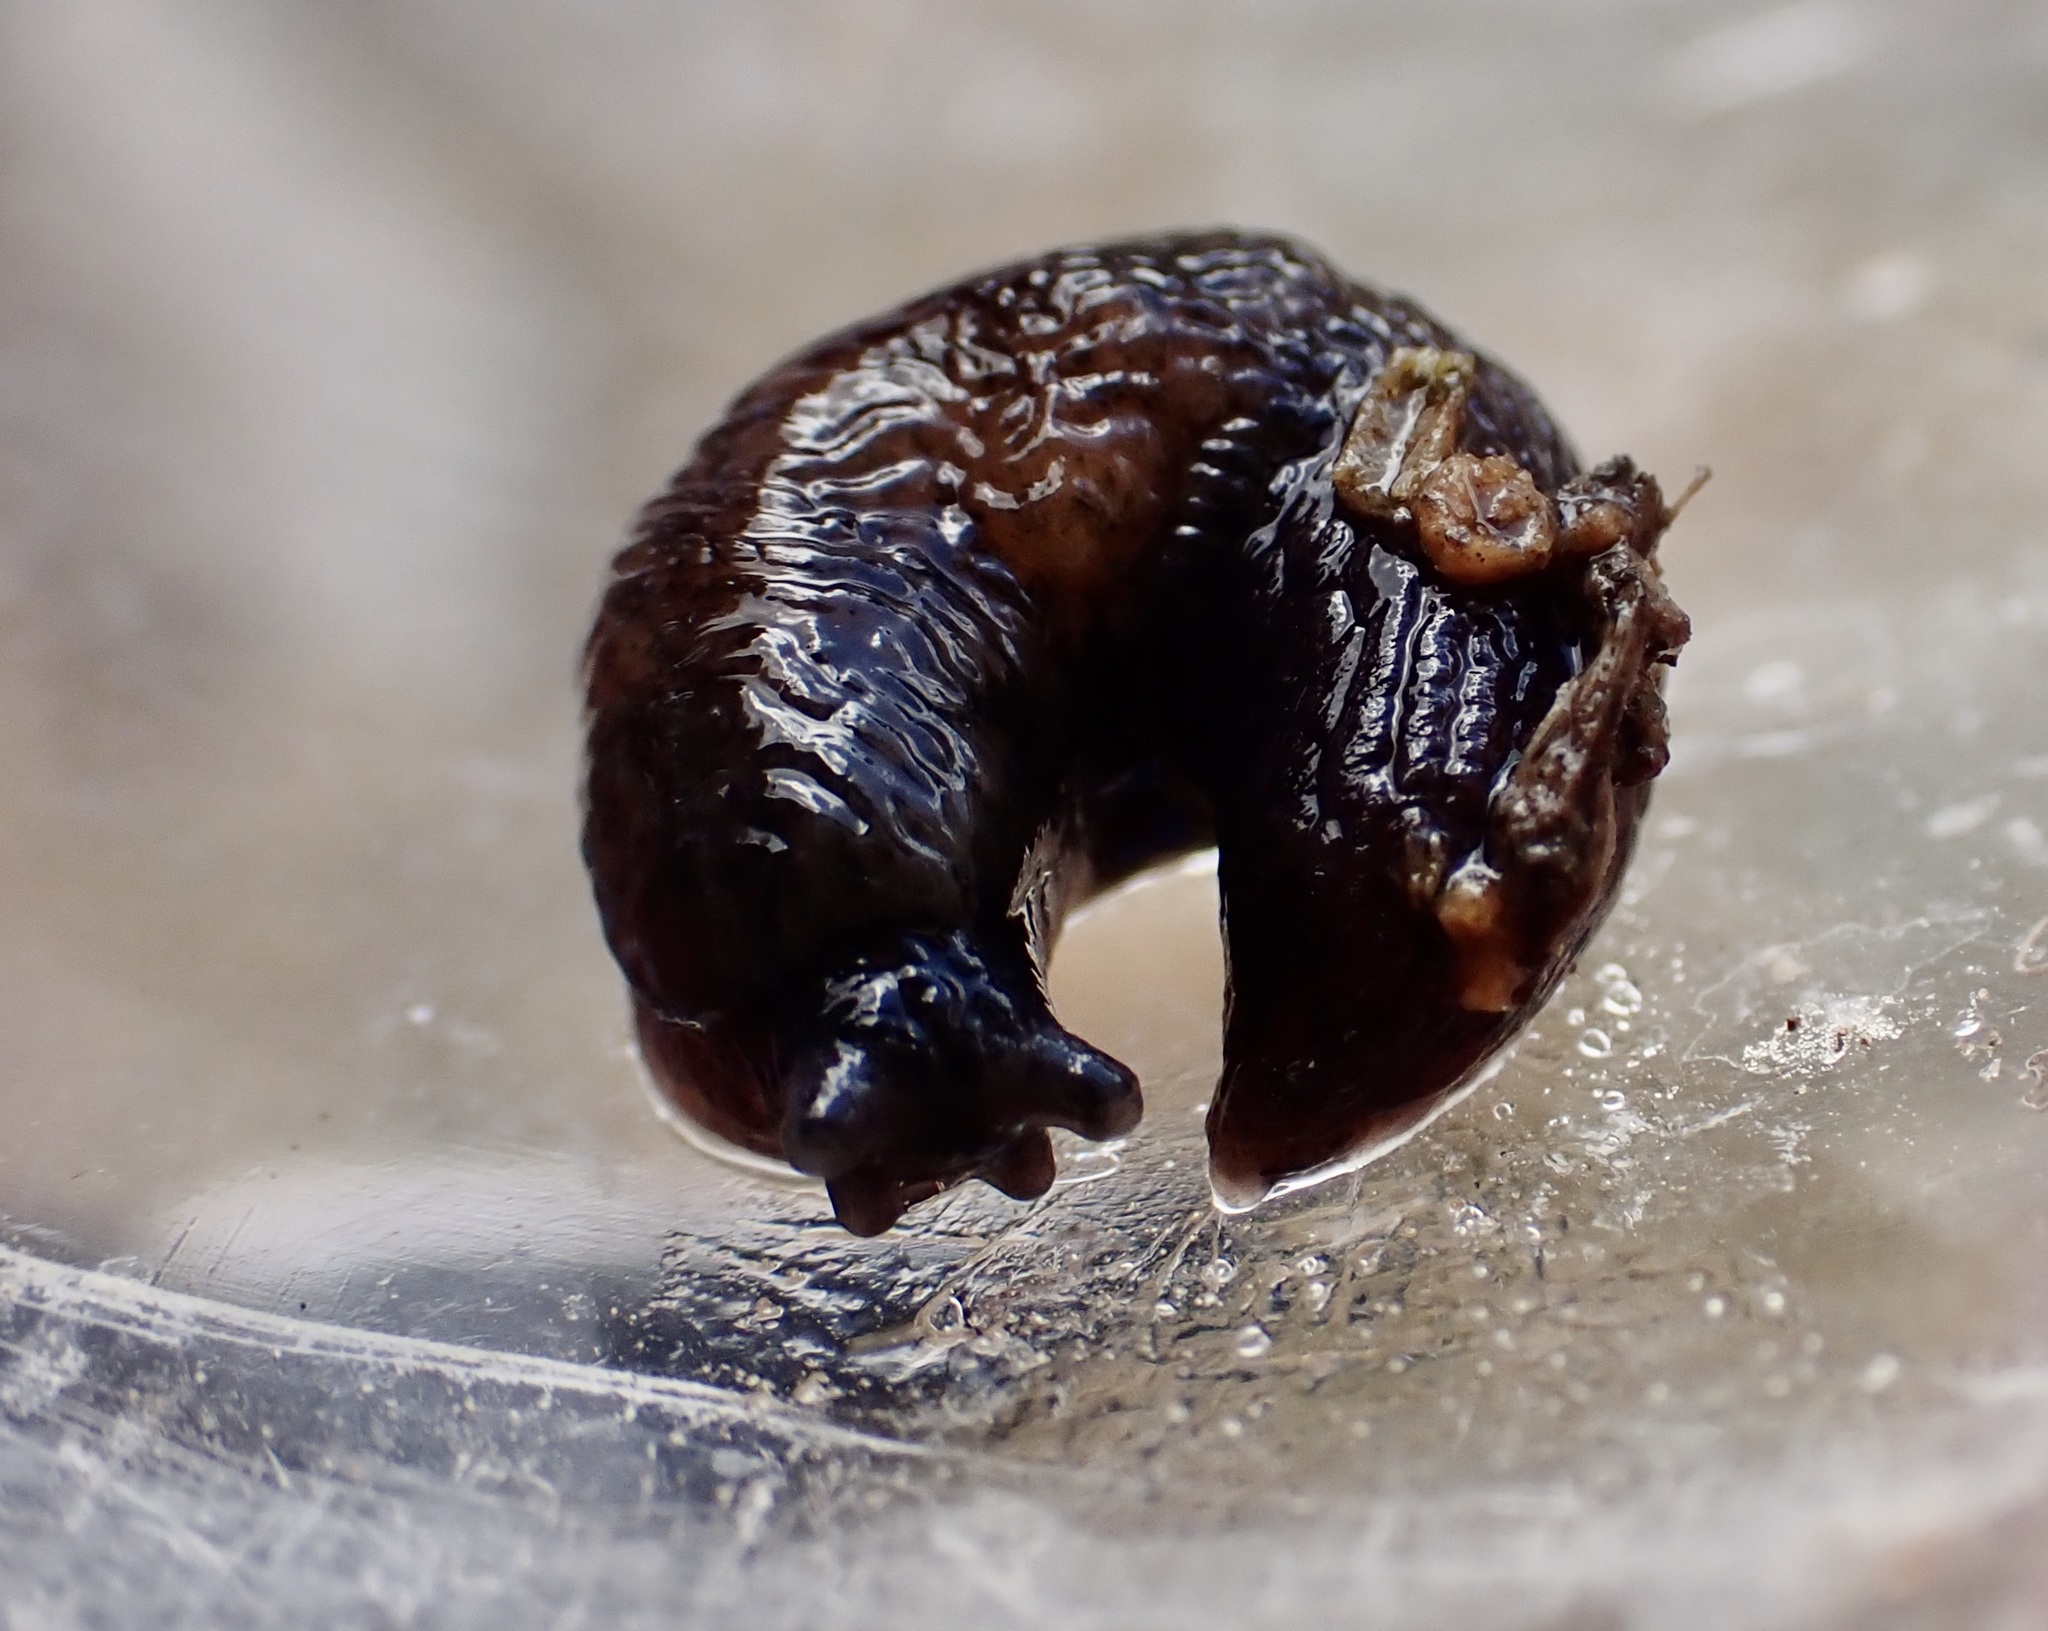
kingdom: Animalia
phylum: Mollusca
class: Gastropoda
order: Stylommatophora
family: Agriolimacidae
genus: Deroceras
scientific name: Deroceras laeve
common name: Marsh slug
